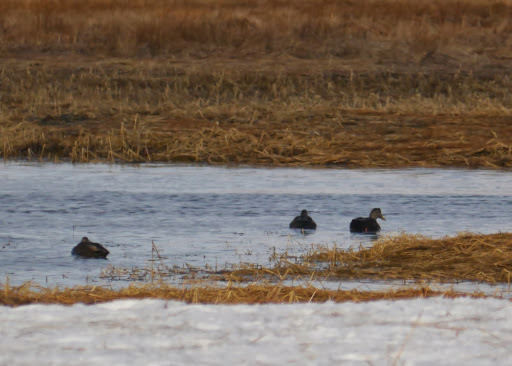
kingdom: Animalia
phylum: Chordata
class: Aves
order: Anseriformes
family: Anatidae
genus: Anas
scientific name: Anas rubripes
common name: American black duck
